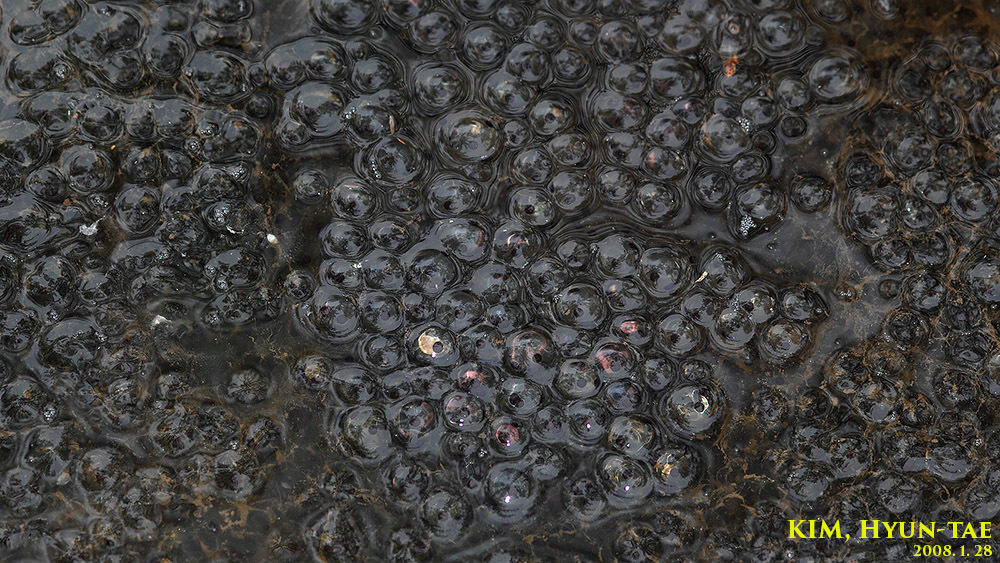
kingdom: Animalia
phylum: Chordata
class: Amphibia
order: Anura
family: Ranidae
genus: Rana
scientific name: Rana uenoi
